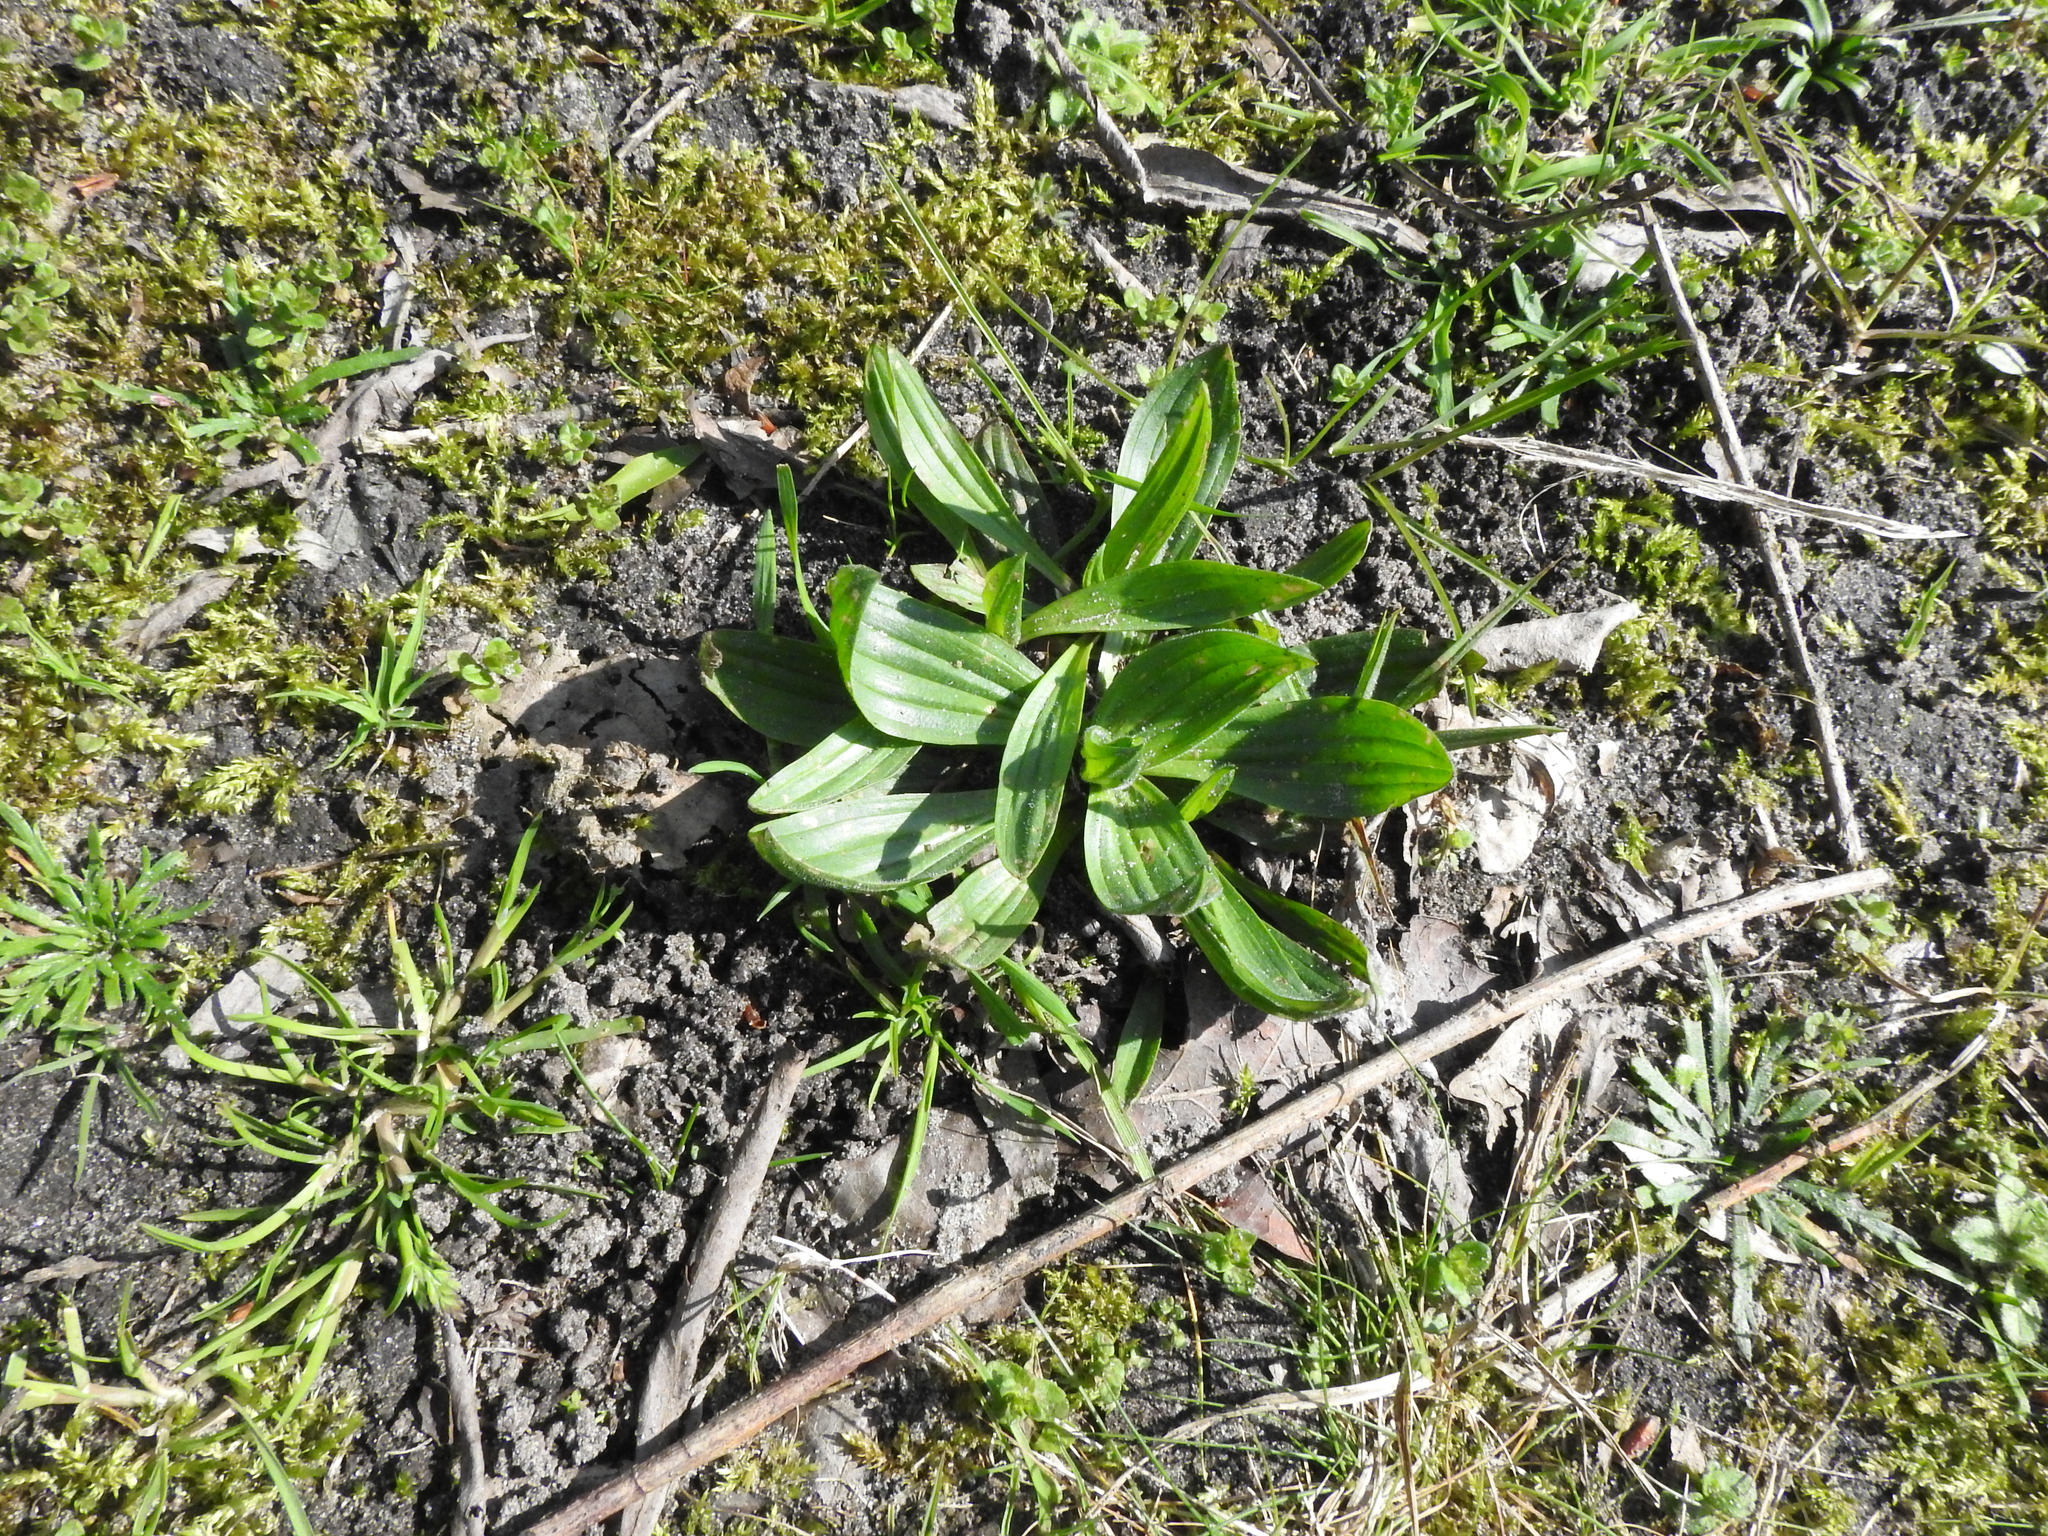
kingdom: Plantae
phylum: Tracheophyta
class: Magnoliopsida
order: Lamiales
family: Plantaginaceae
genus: Plantago
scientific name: Plantago lanceolata
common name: Ribwort plantain
